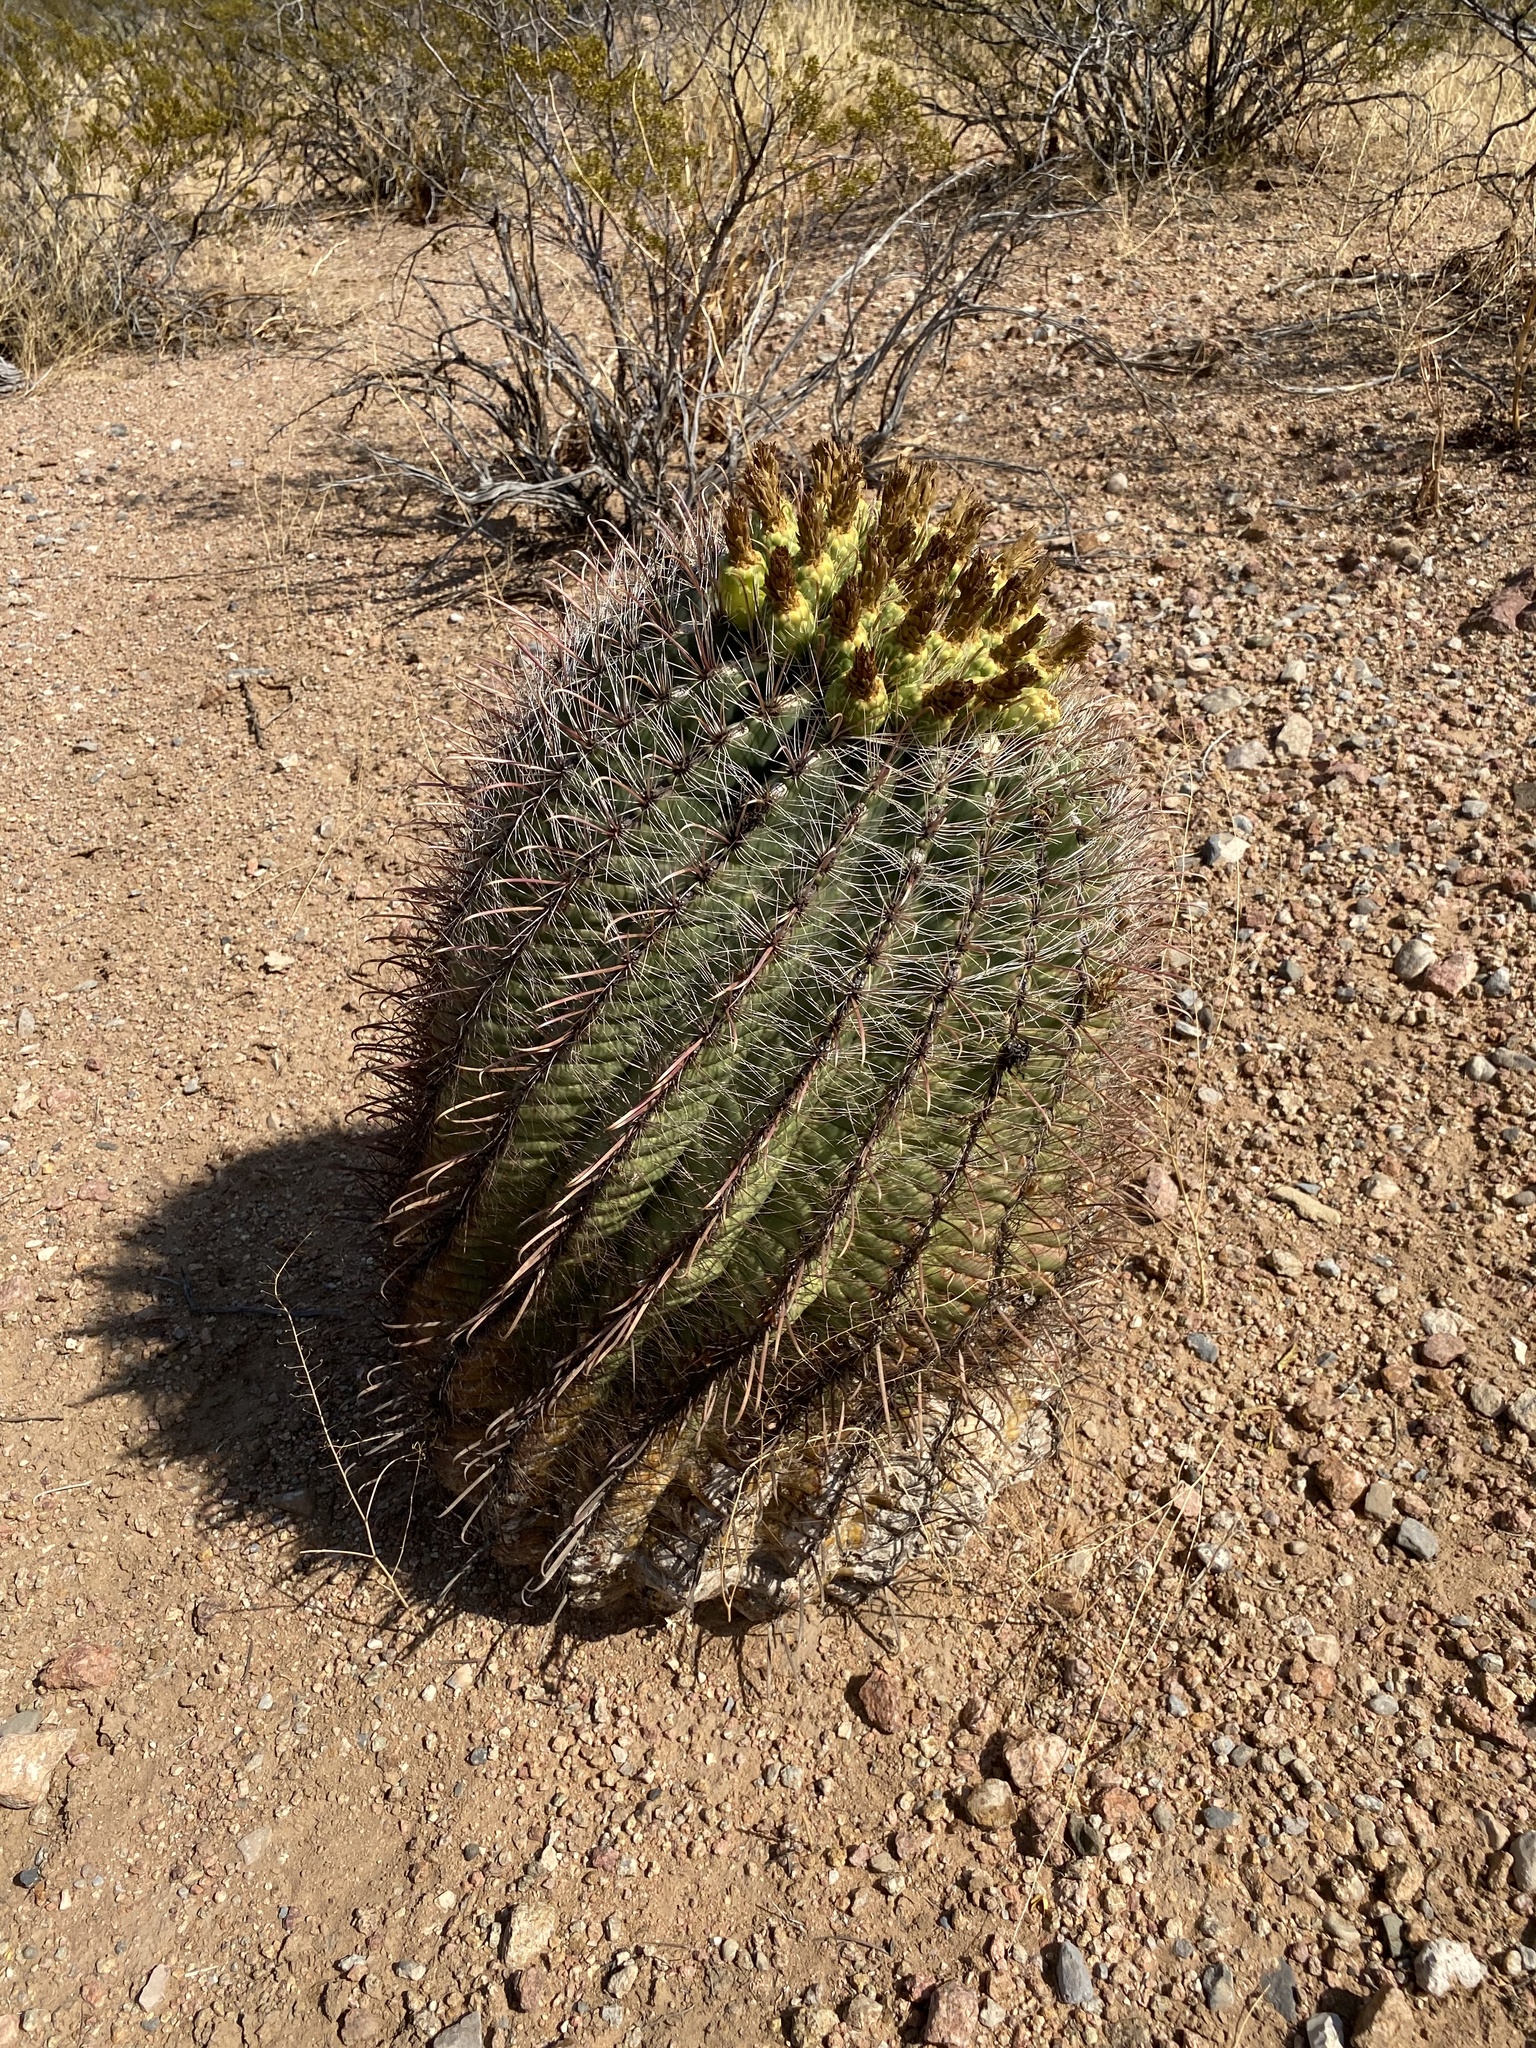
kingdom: Plantae
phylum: Tracheophyta
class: Magnoliopsida
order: Caryophyllales
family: Cactaceae
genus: Ferocactus
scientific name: Ferocactus wislizeni
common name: Candy barrel cactus
